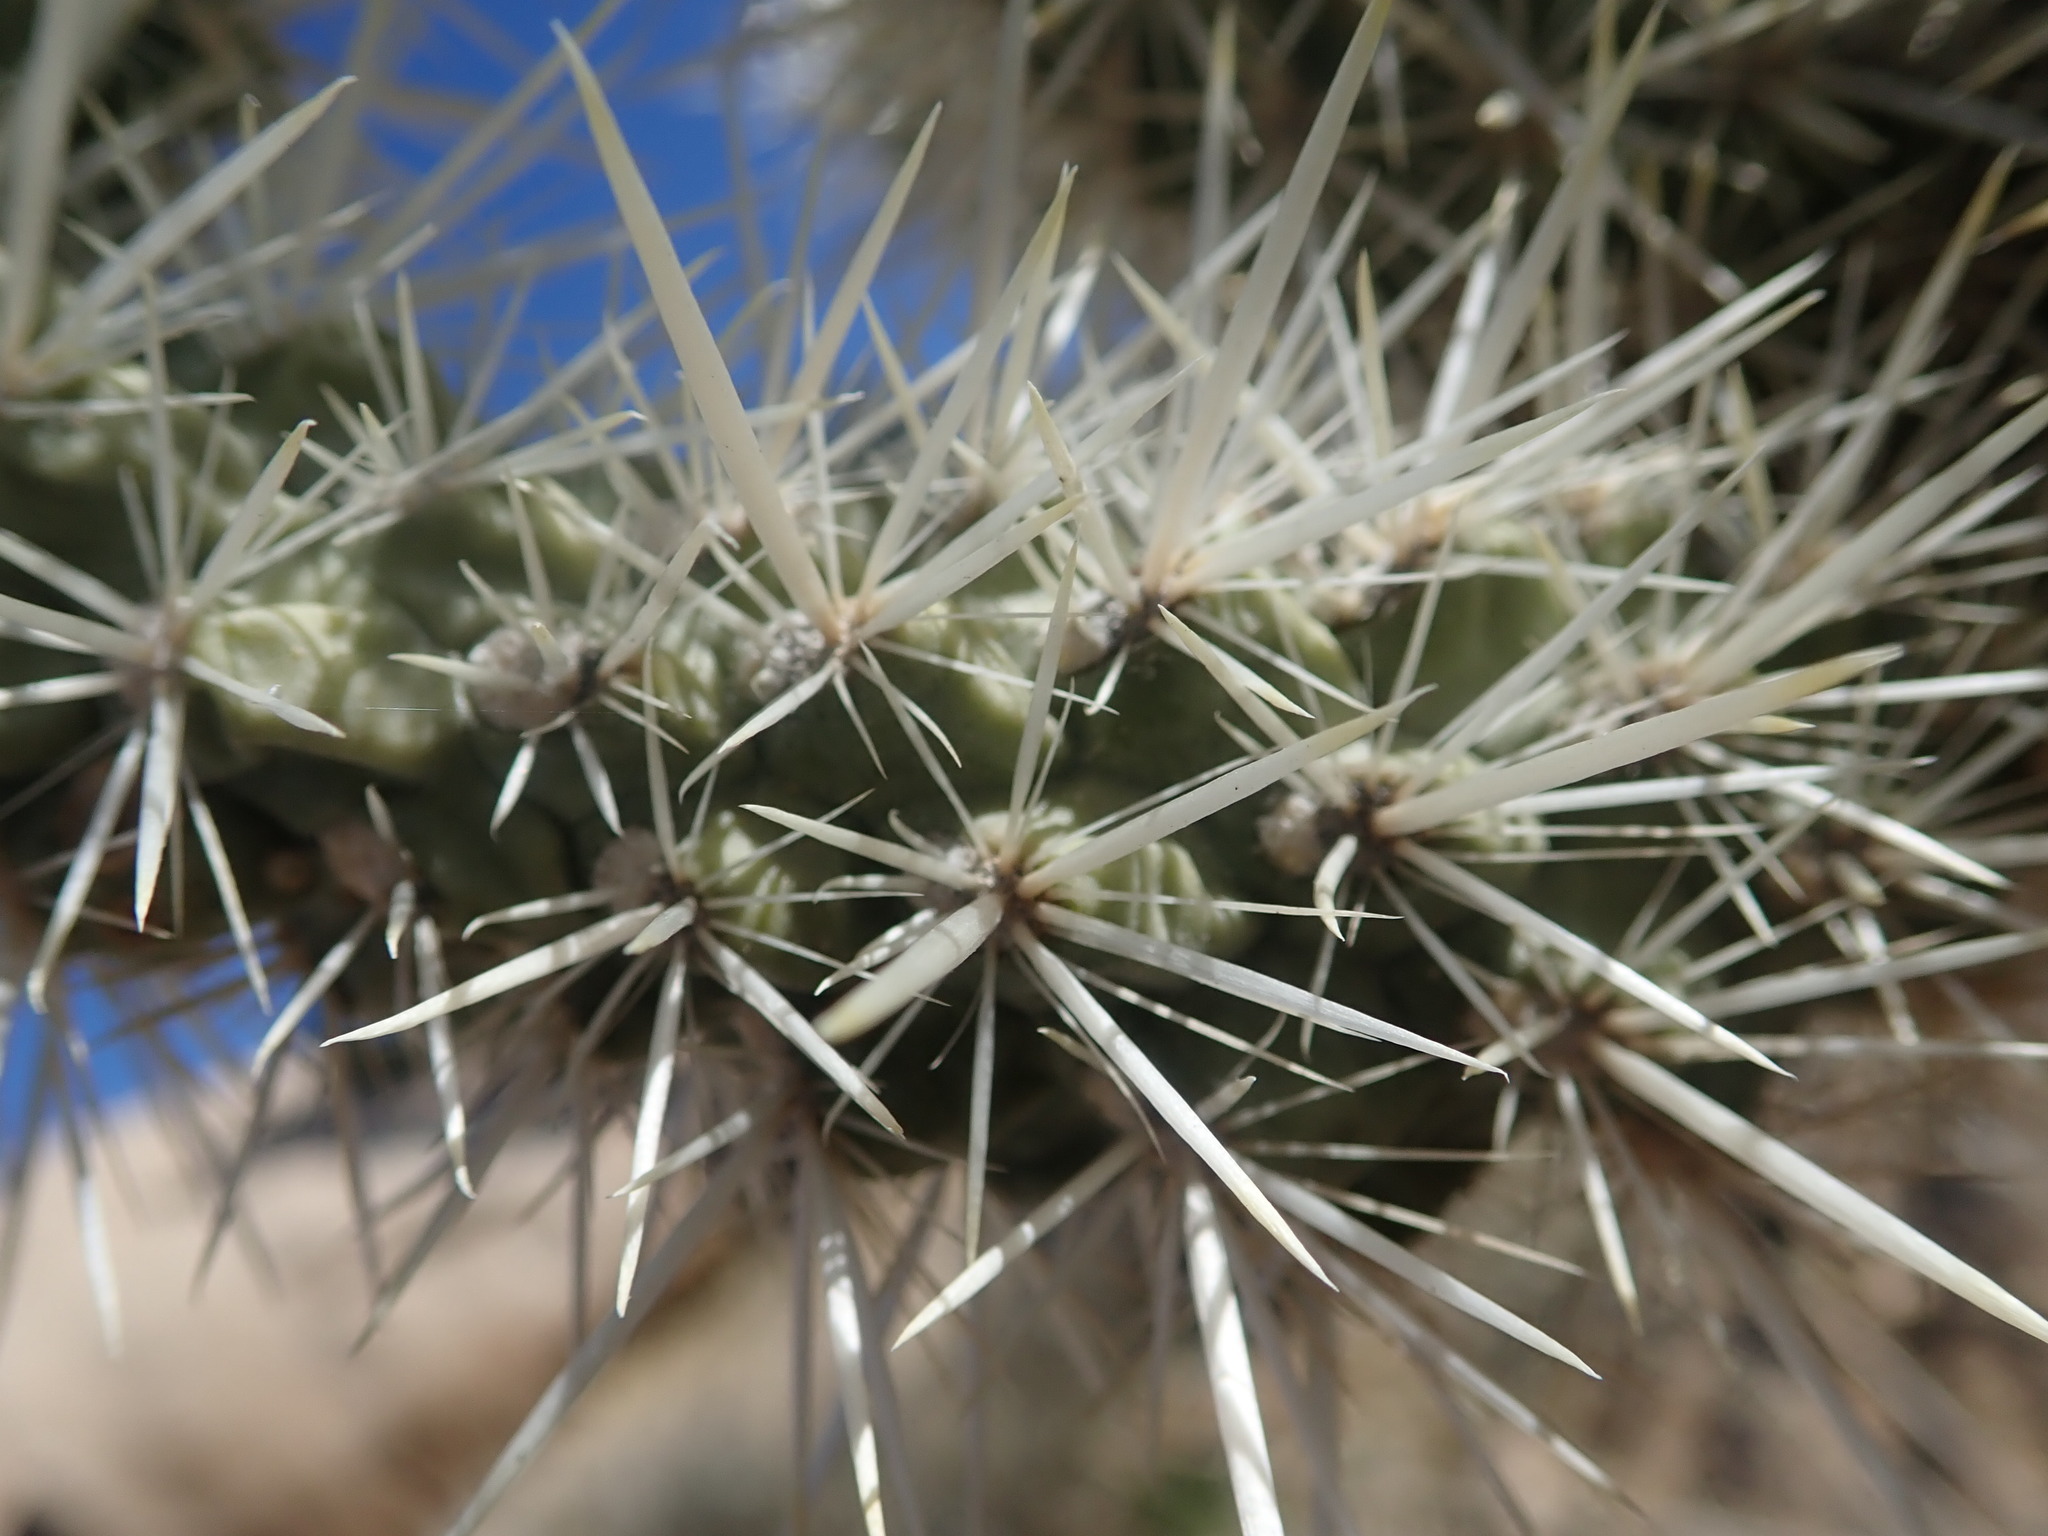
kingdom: Plantae
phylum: Tracheophyta
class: Magnoliopsida
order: Caryophyllales
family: Cactaceae
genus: Cylindropuntia
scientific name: Cylindropuntia echinocarpa
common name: Ground cholla
